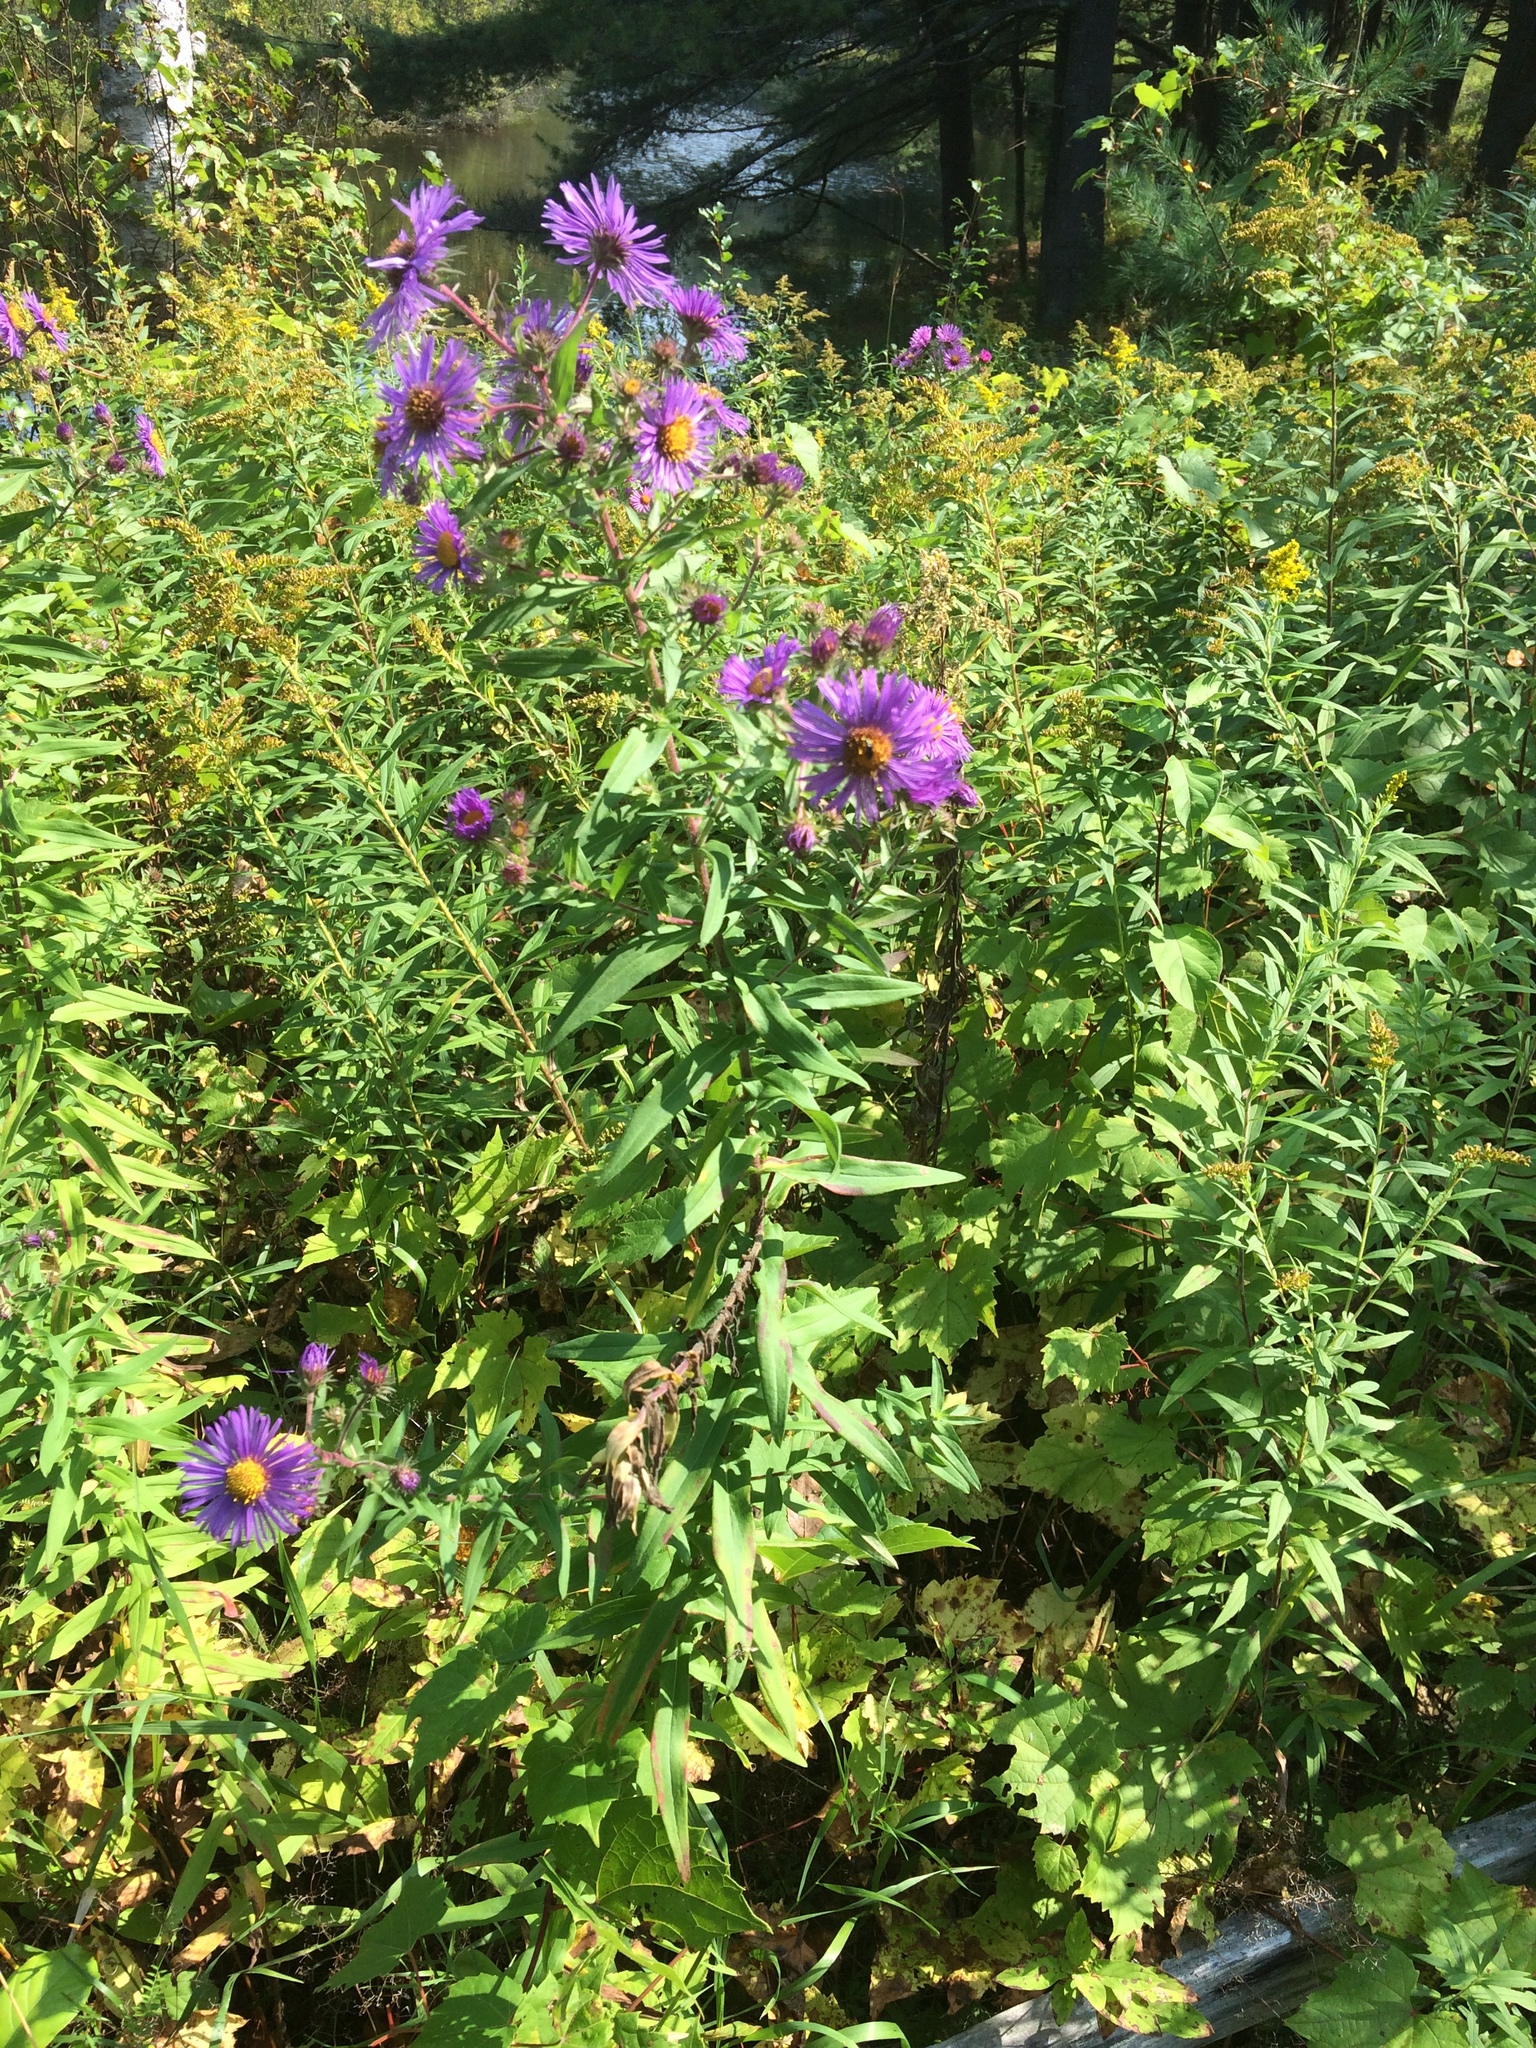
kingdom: Plantae
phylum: Tracheophyta
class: Magnoliopsida
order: Asterales
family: Asteraceae
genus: Symphyotrichum
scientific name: Symphyotrichum novae-angliae
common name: Michaelmas daisy
